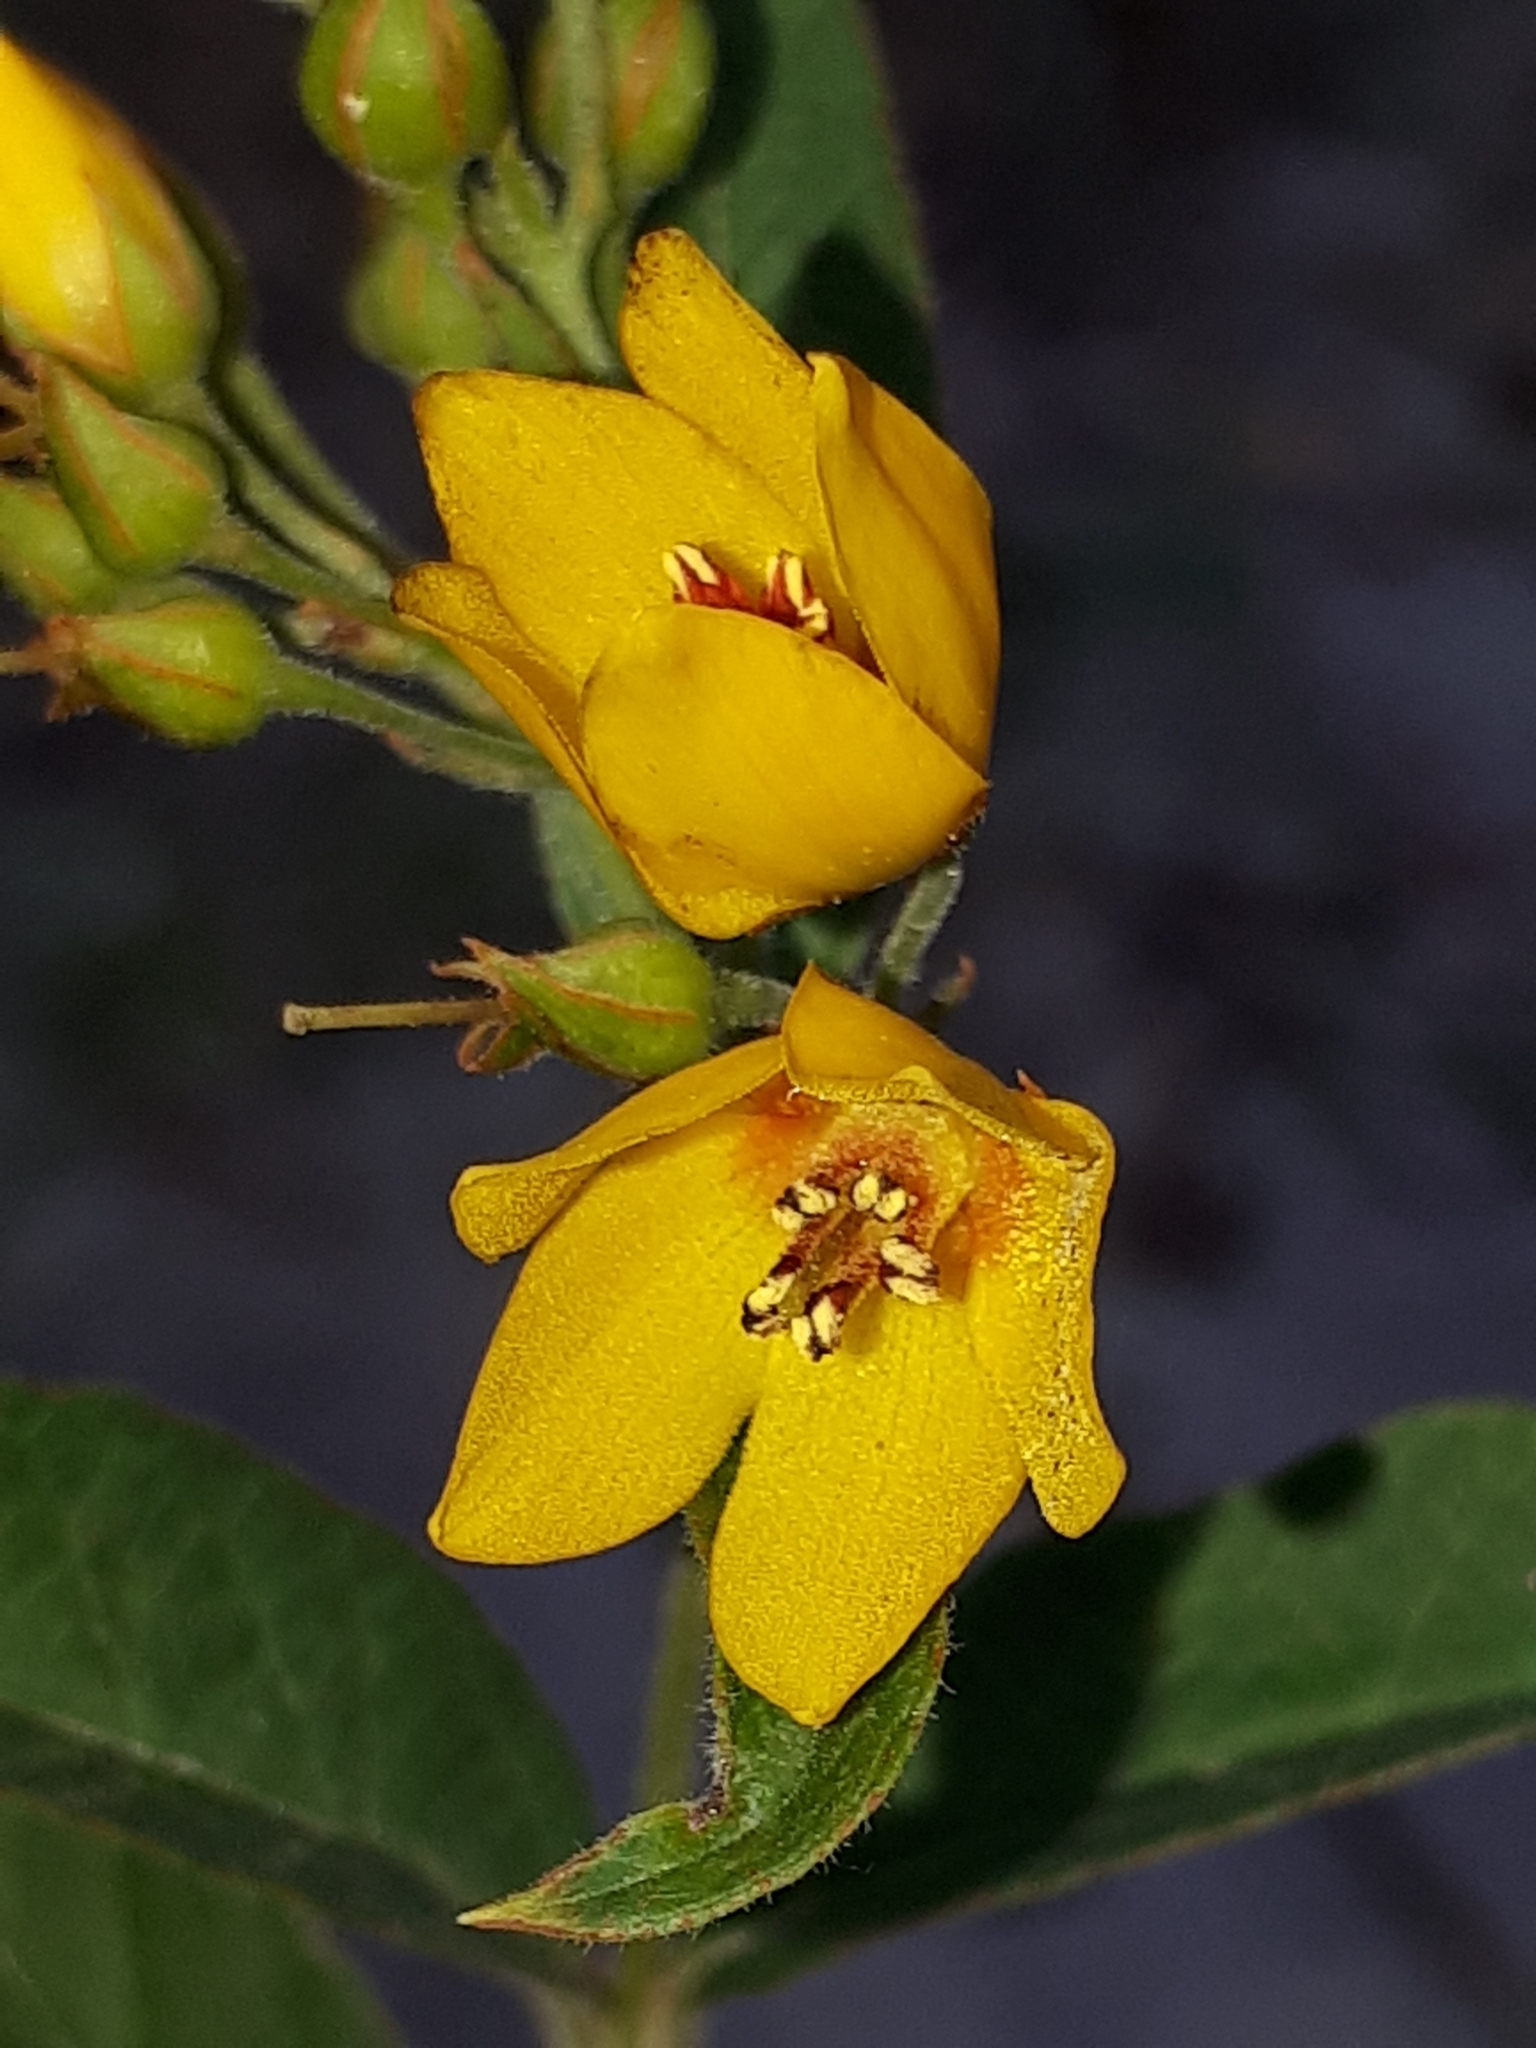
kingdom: Plantae
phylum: Tracheophyta
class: Magnoliopsida
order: Ericales
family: Primulaceae
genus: Lysimachia
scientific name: Lysimachia vulgaris
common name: Yellow loosestrife
